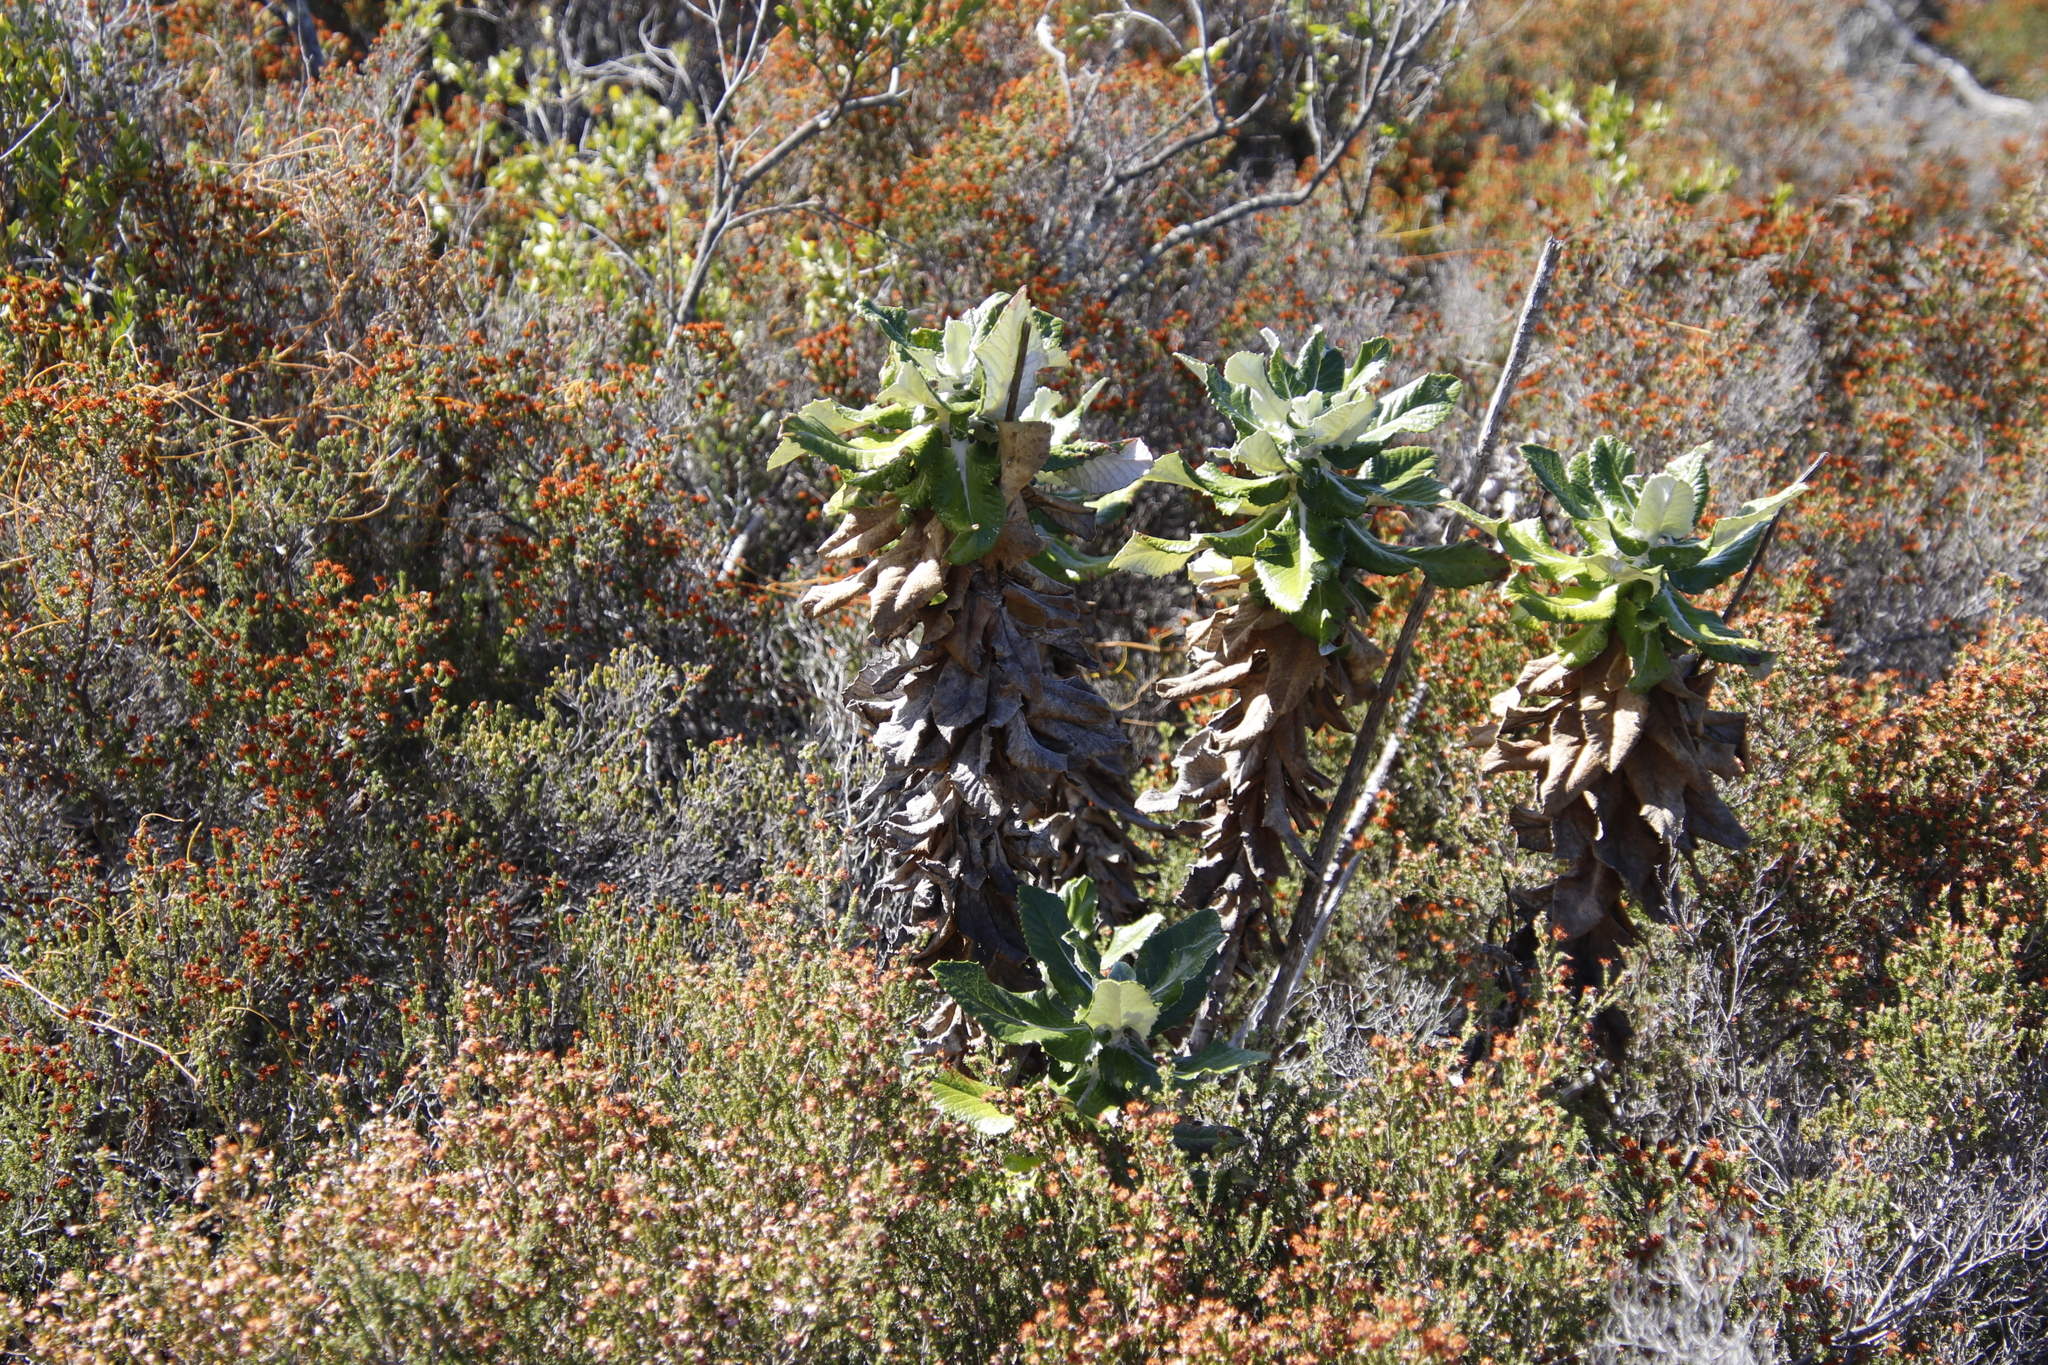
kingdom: Plantae
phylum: Tracheophyta
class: Magnoliopsida
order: Apiales
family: Apiaceae
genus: Hermas
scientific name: Hermas villosa
